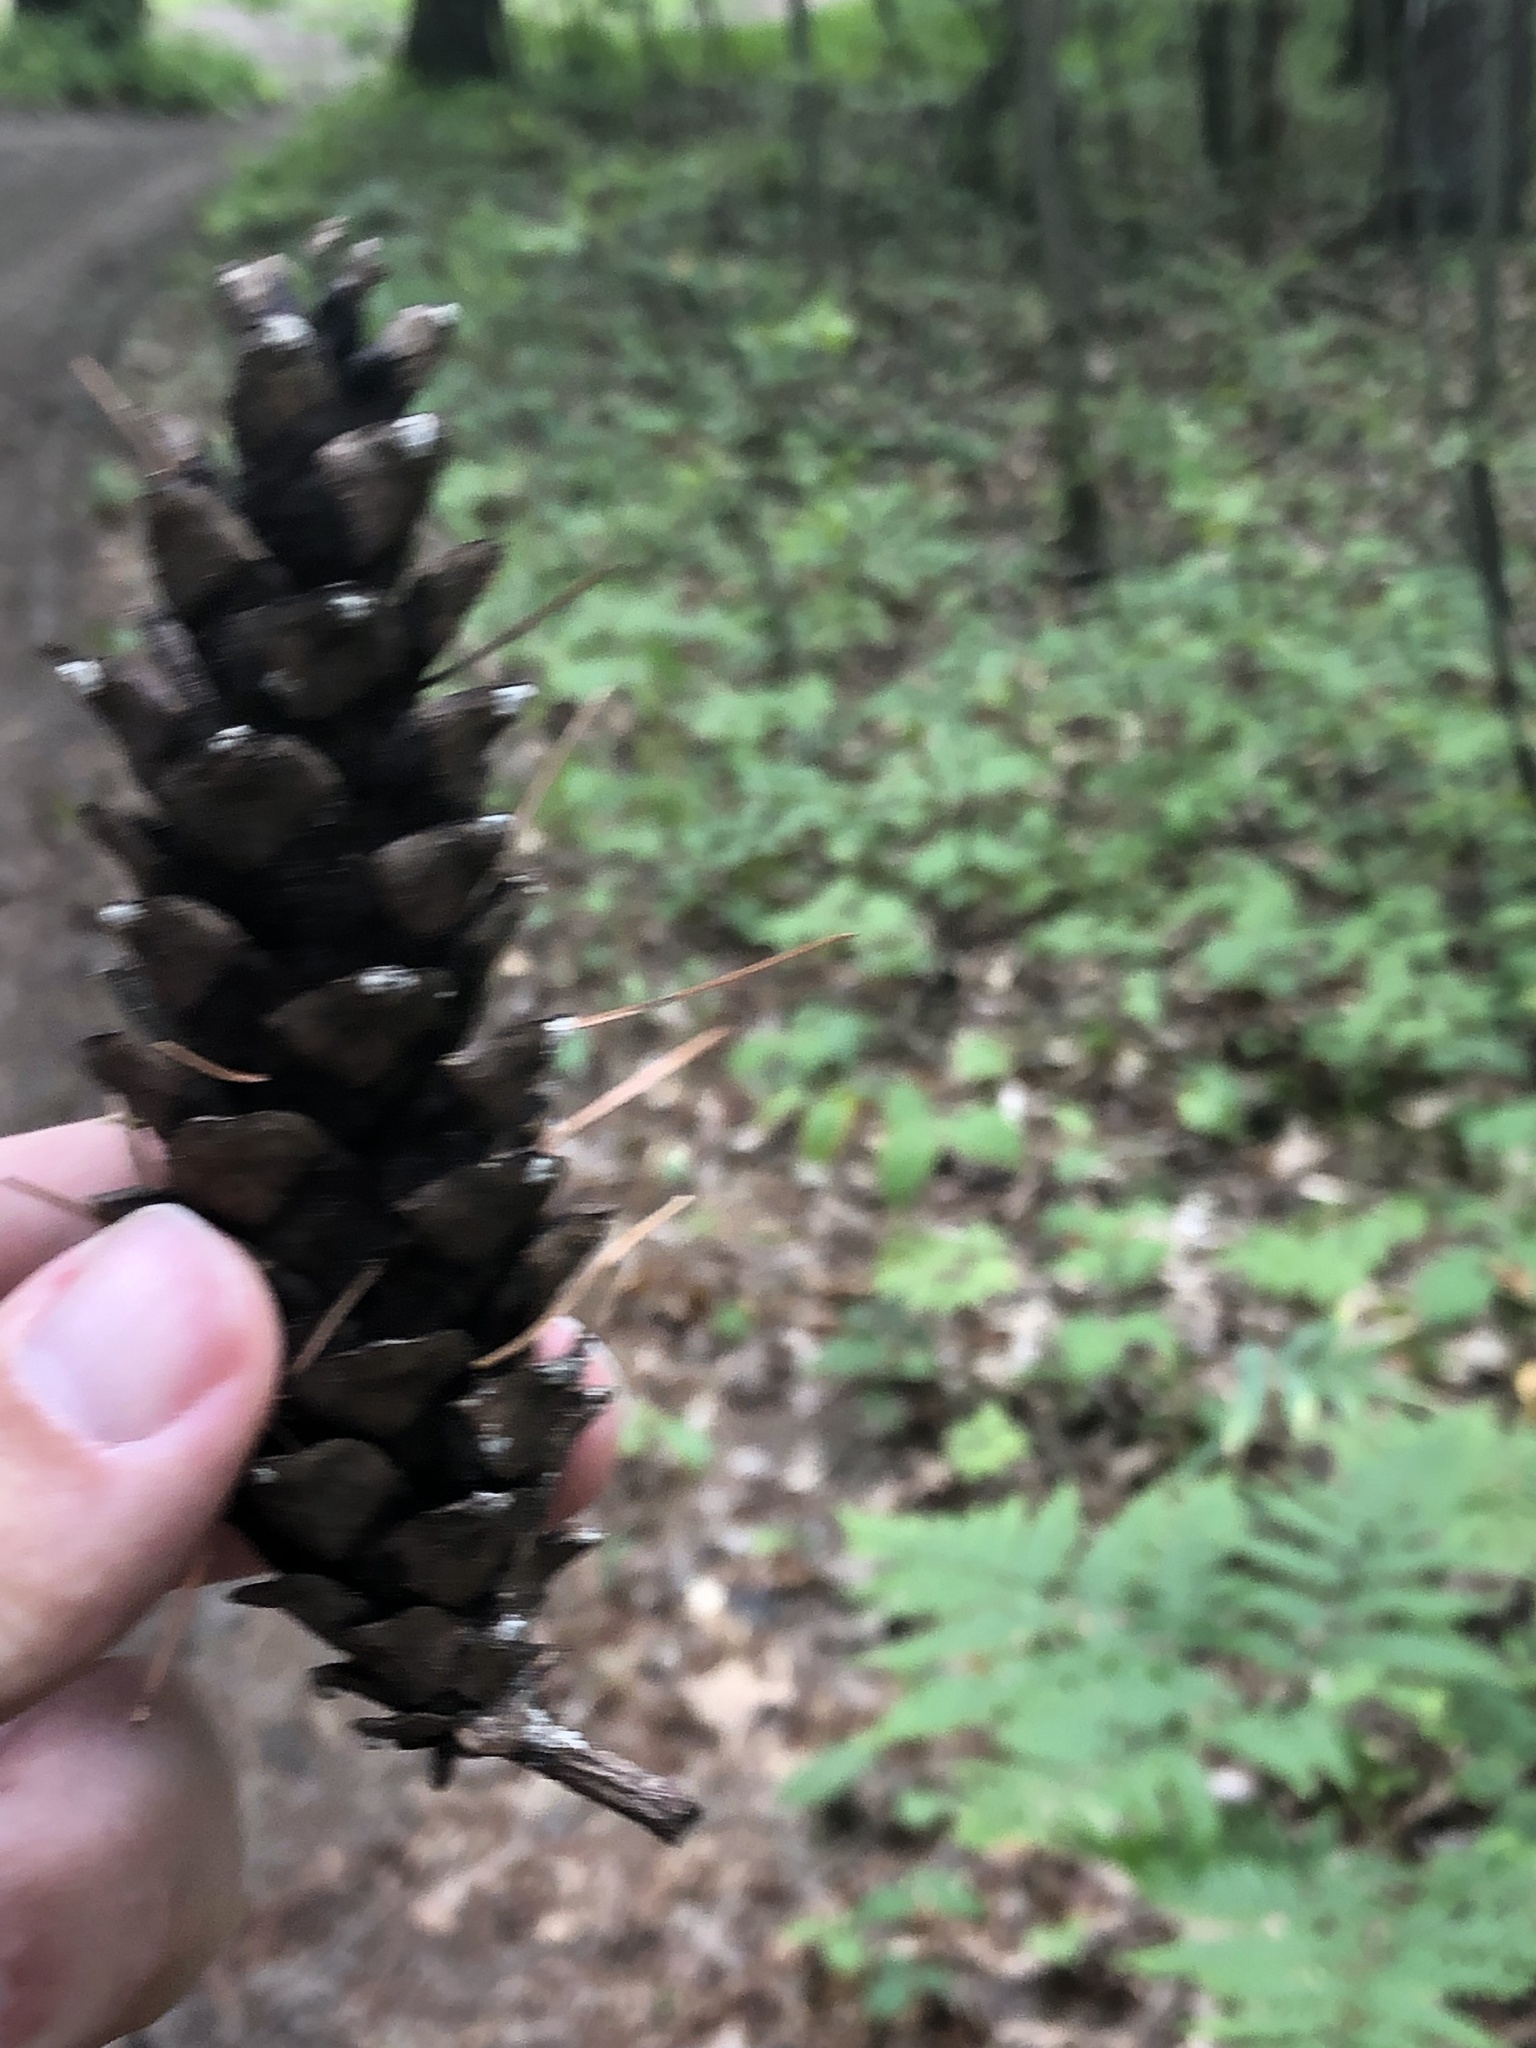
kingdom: Plantae
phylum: Tracheophyta
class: Pinopsida
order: Pinales
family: Pinaceae
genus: Pinus
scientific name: Pinus strobus
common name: Weymouth pine
